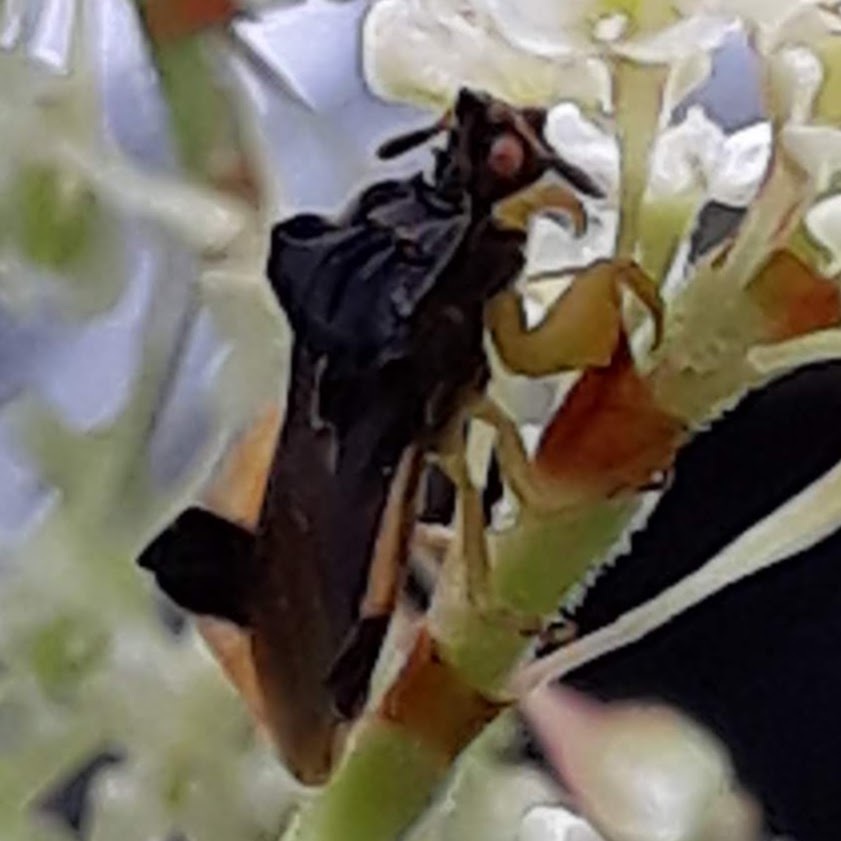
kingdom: Animalia
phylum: Arthropoda
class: Insecta
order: Hemiptera
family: Reduviidae
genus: Phymata
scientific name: Phymata pennsylvanica
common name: Pennsylvania ambush bug
